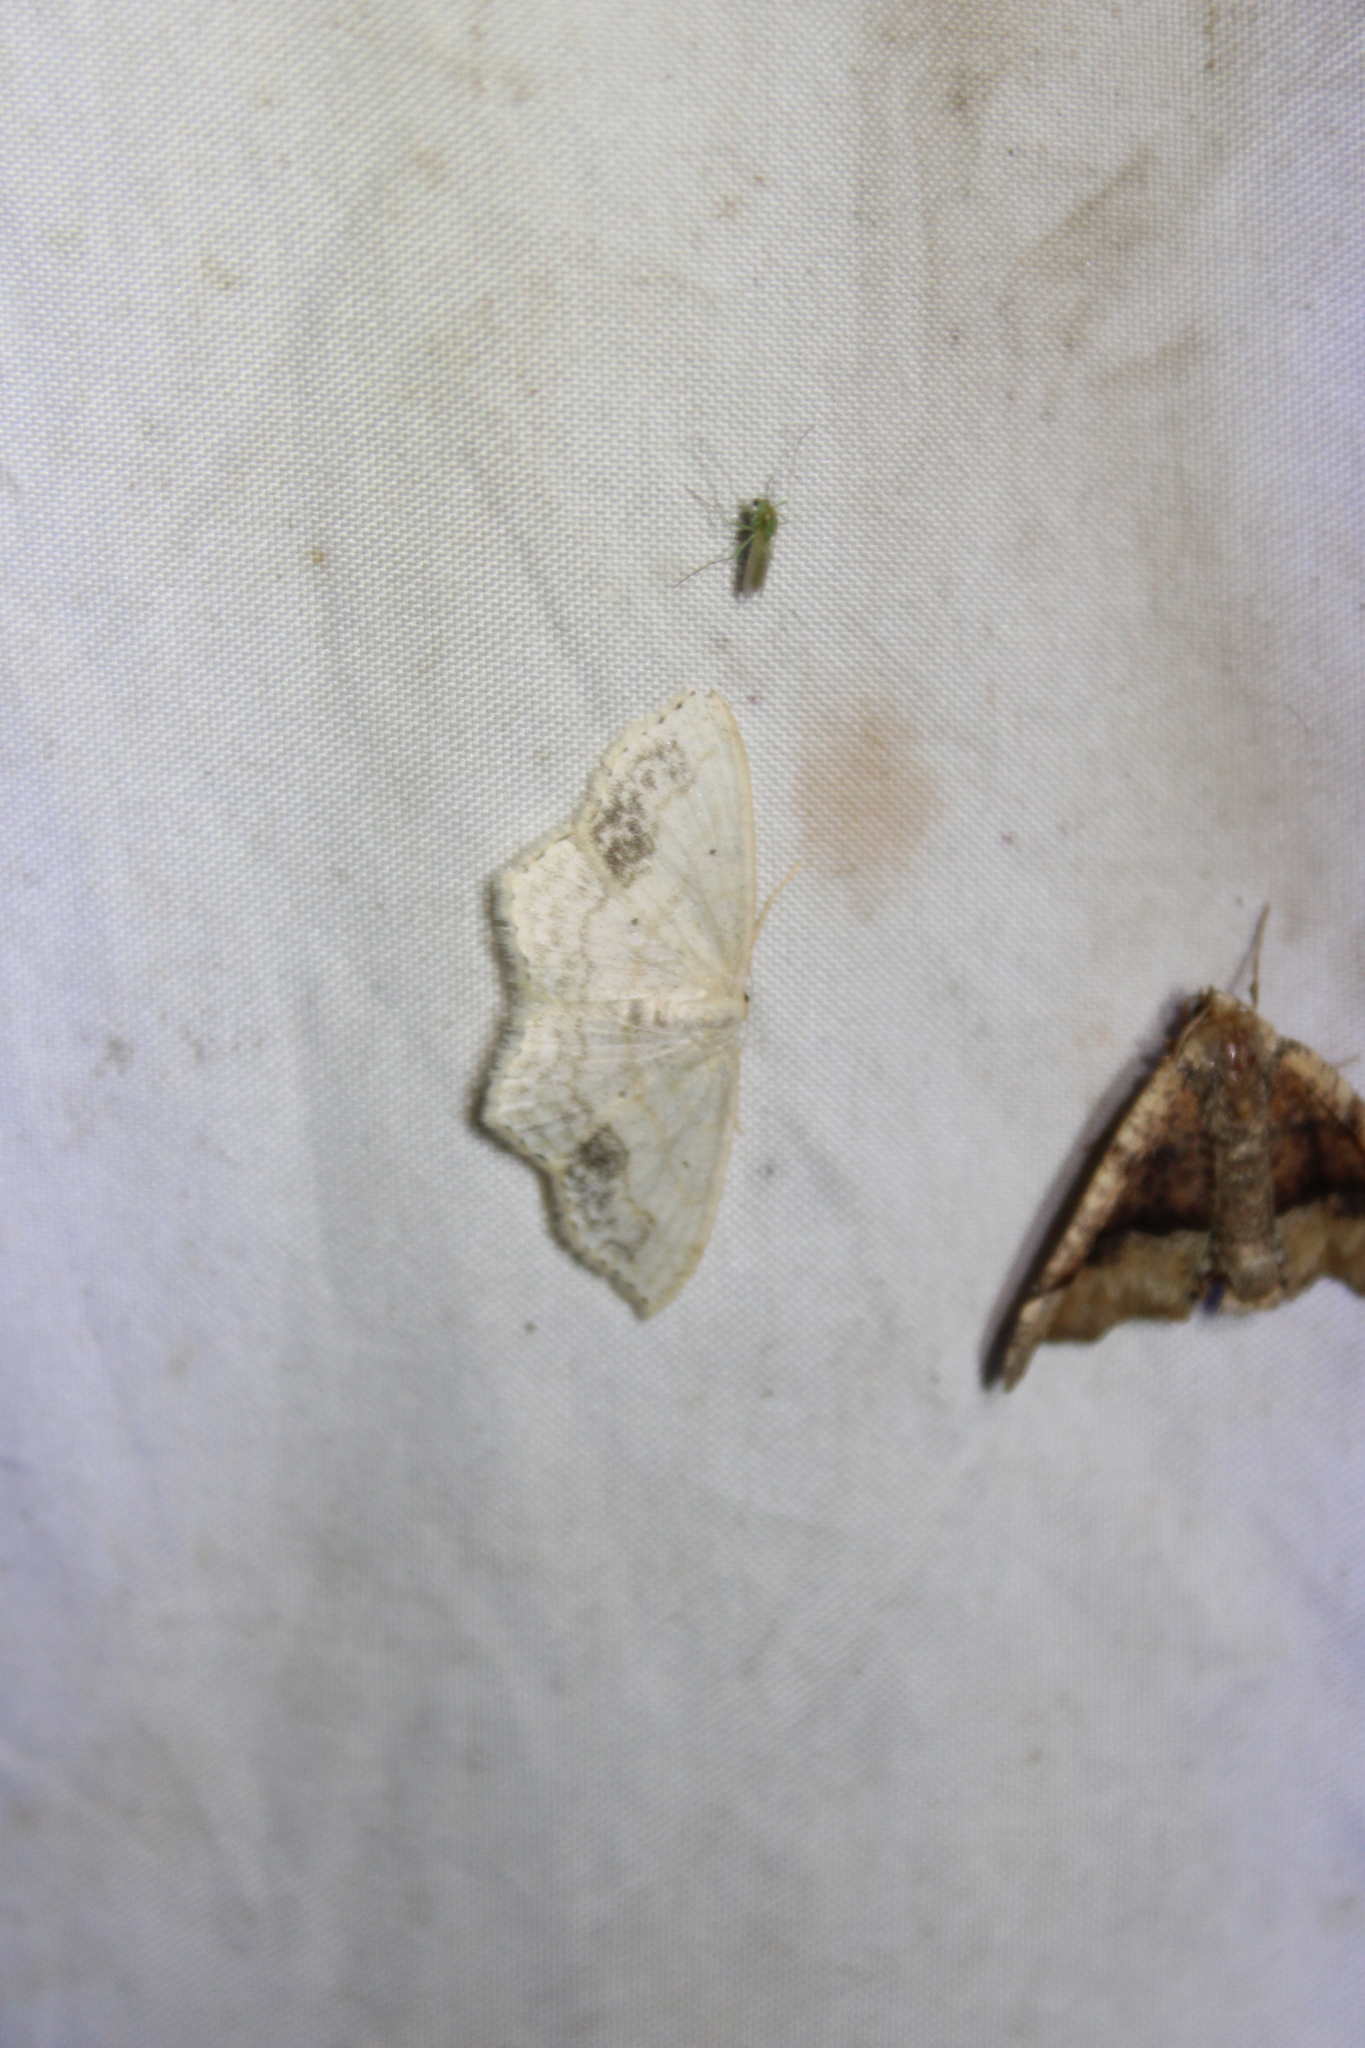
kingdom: Animalia
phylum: Arthropoda
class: Insecta
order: Lepidoptera
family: Geometridae
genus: Scopula
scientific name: Scopula limboundata
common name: Large lace border
